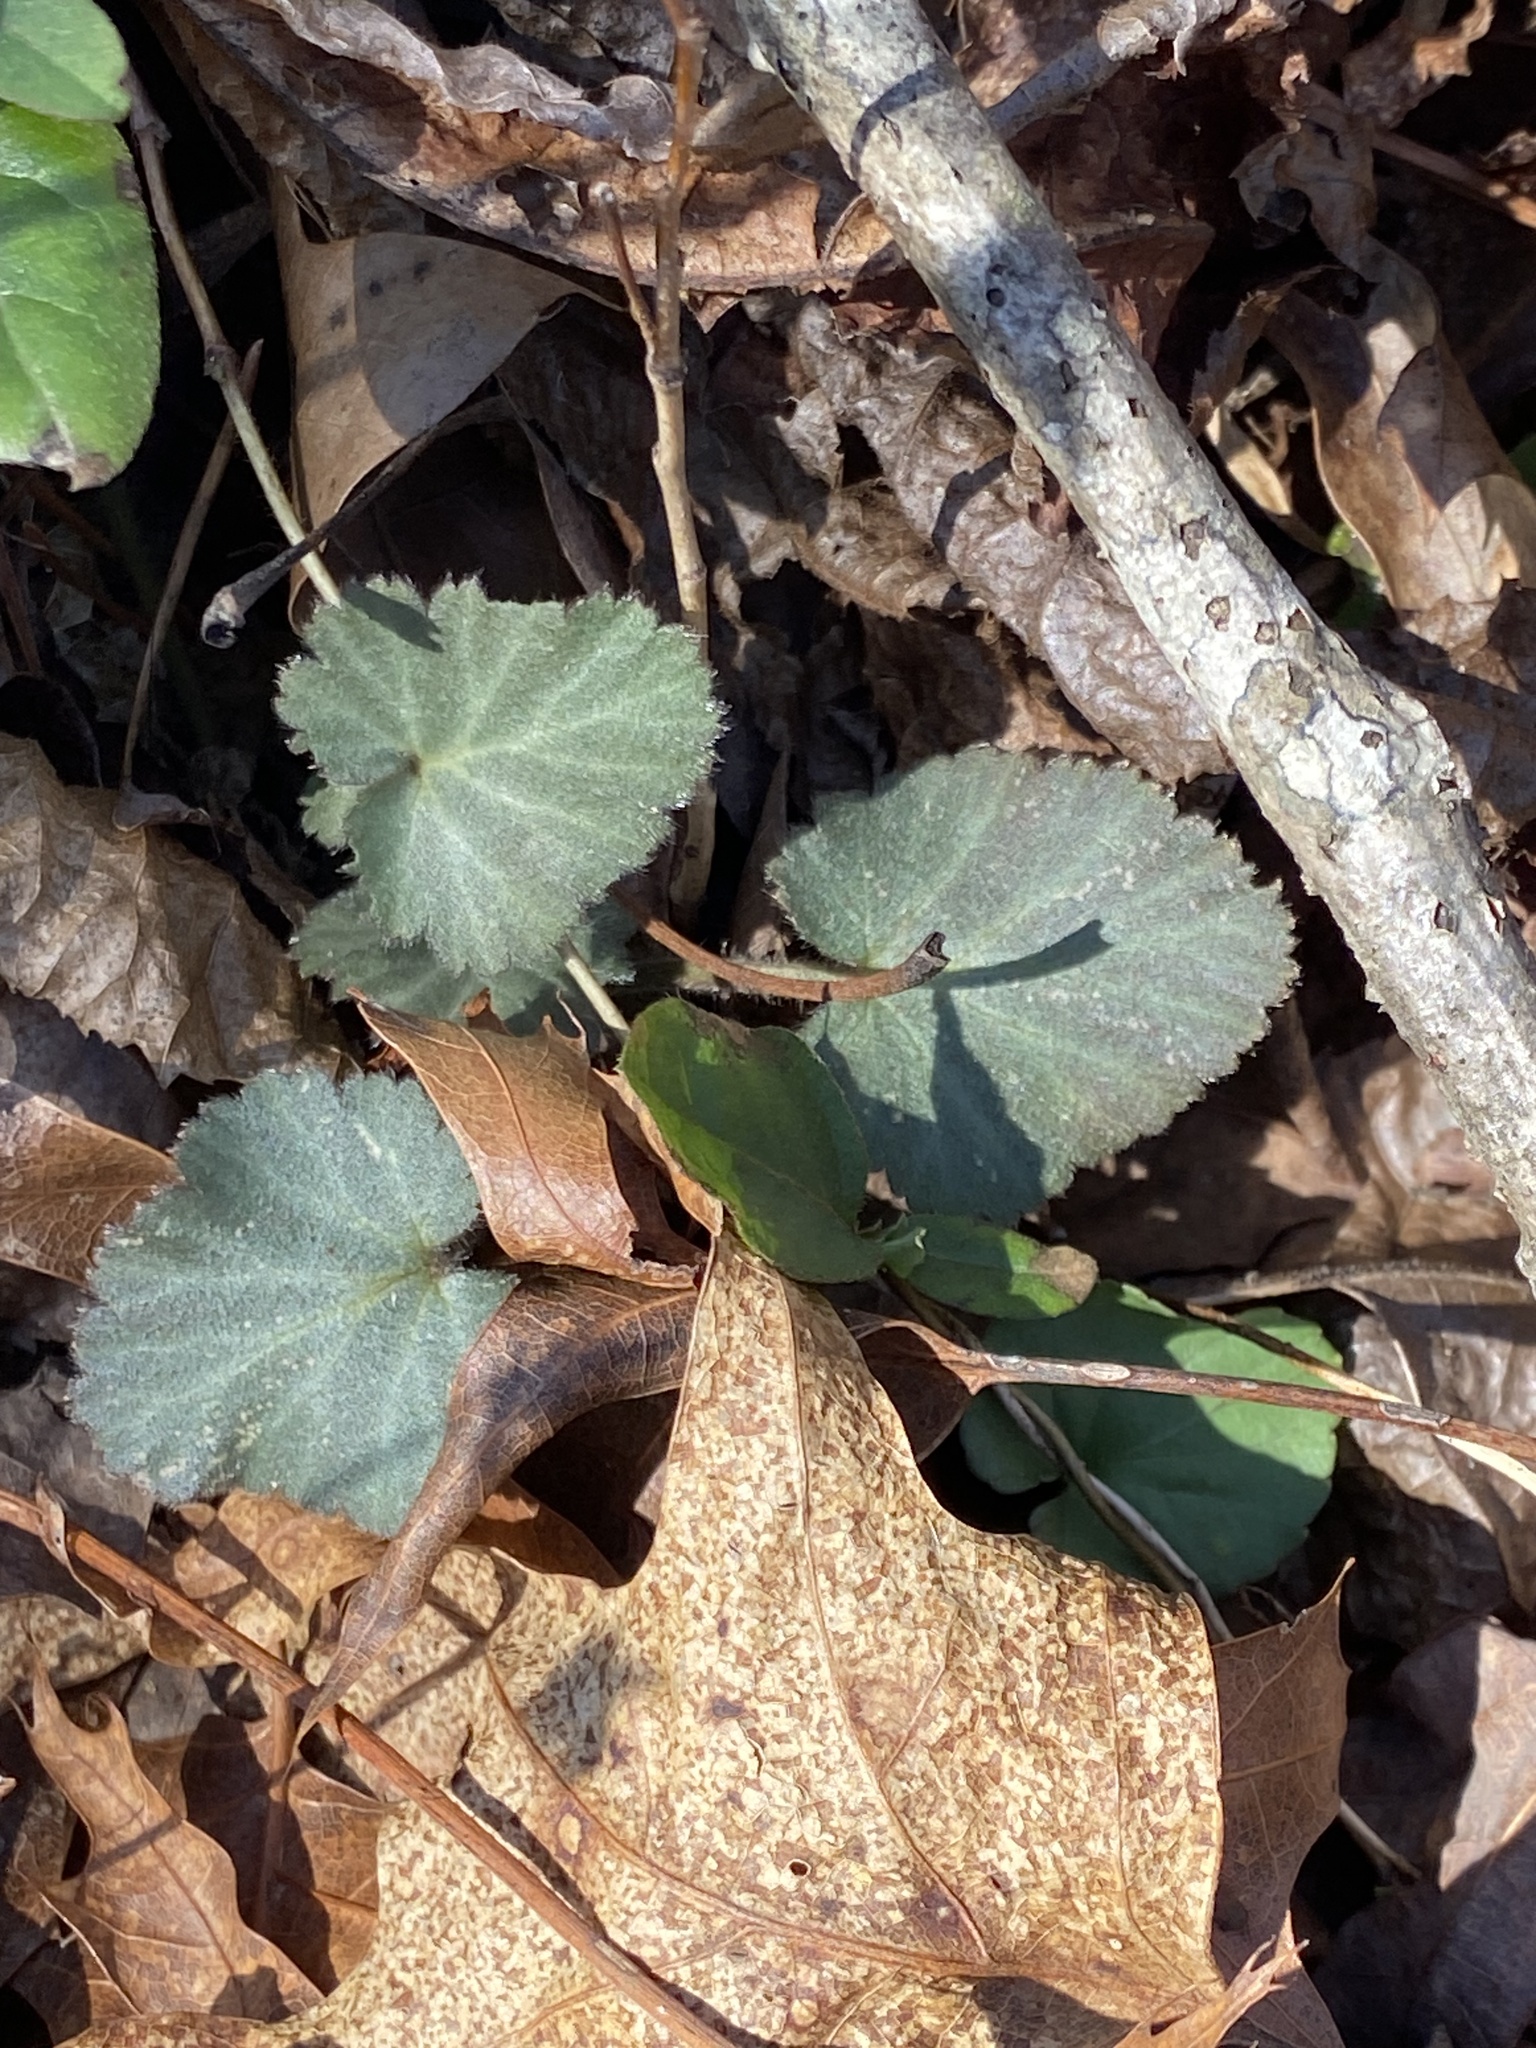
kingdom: Plantae
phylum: Tracheophyta
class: Magnoliopsida
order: Rosales
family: Rosaceae
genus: Geum
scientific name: Geum canadense
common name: White avens
